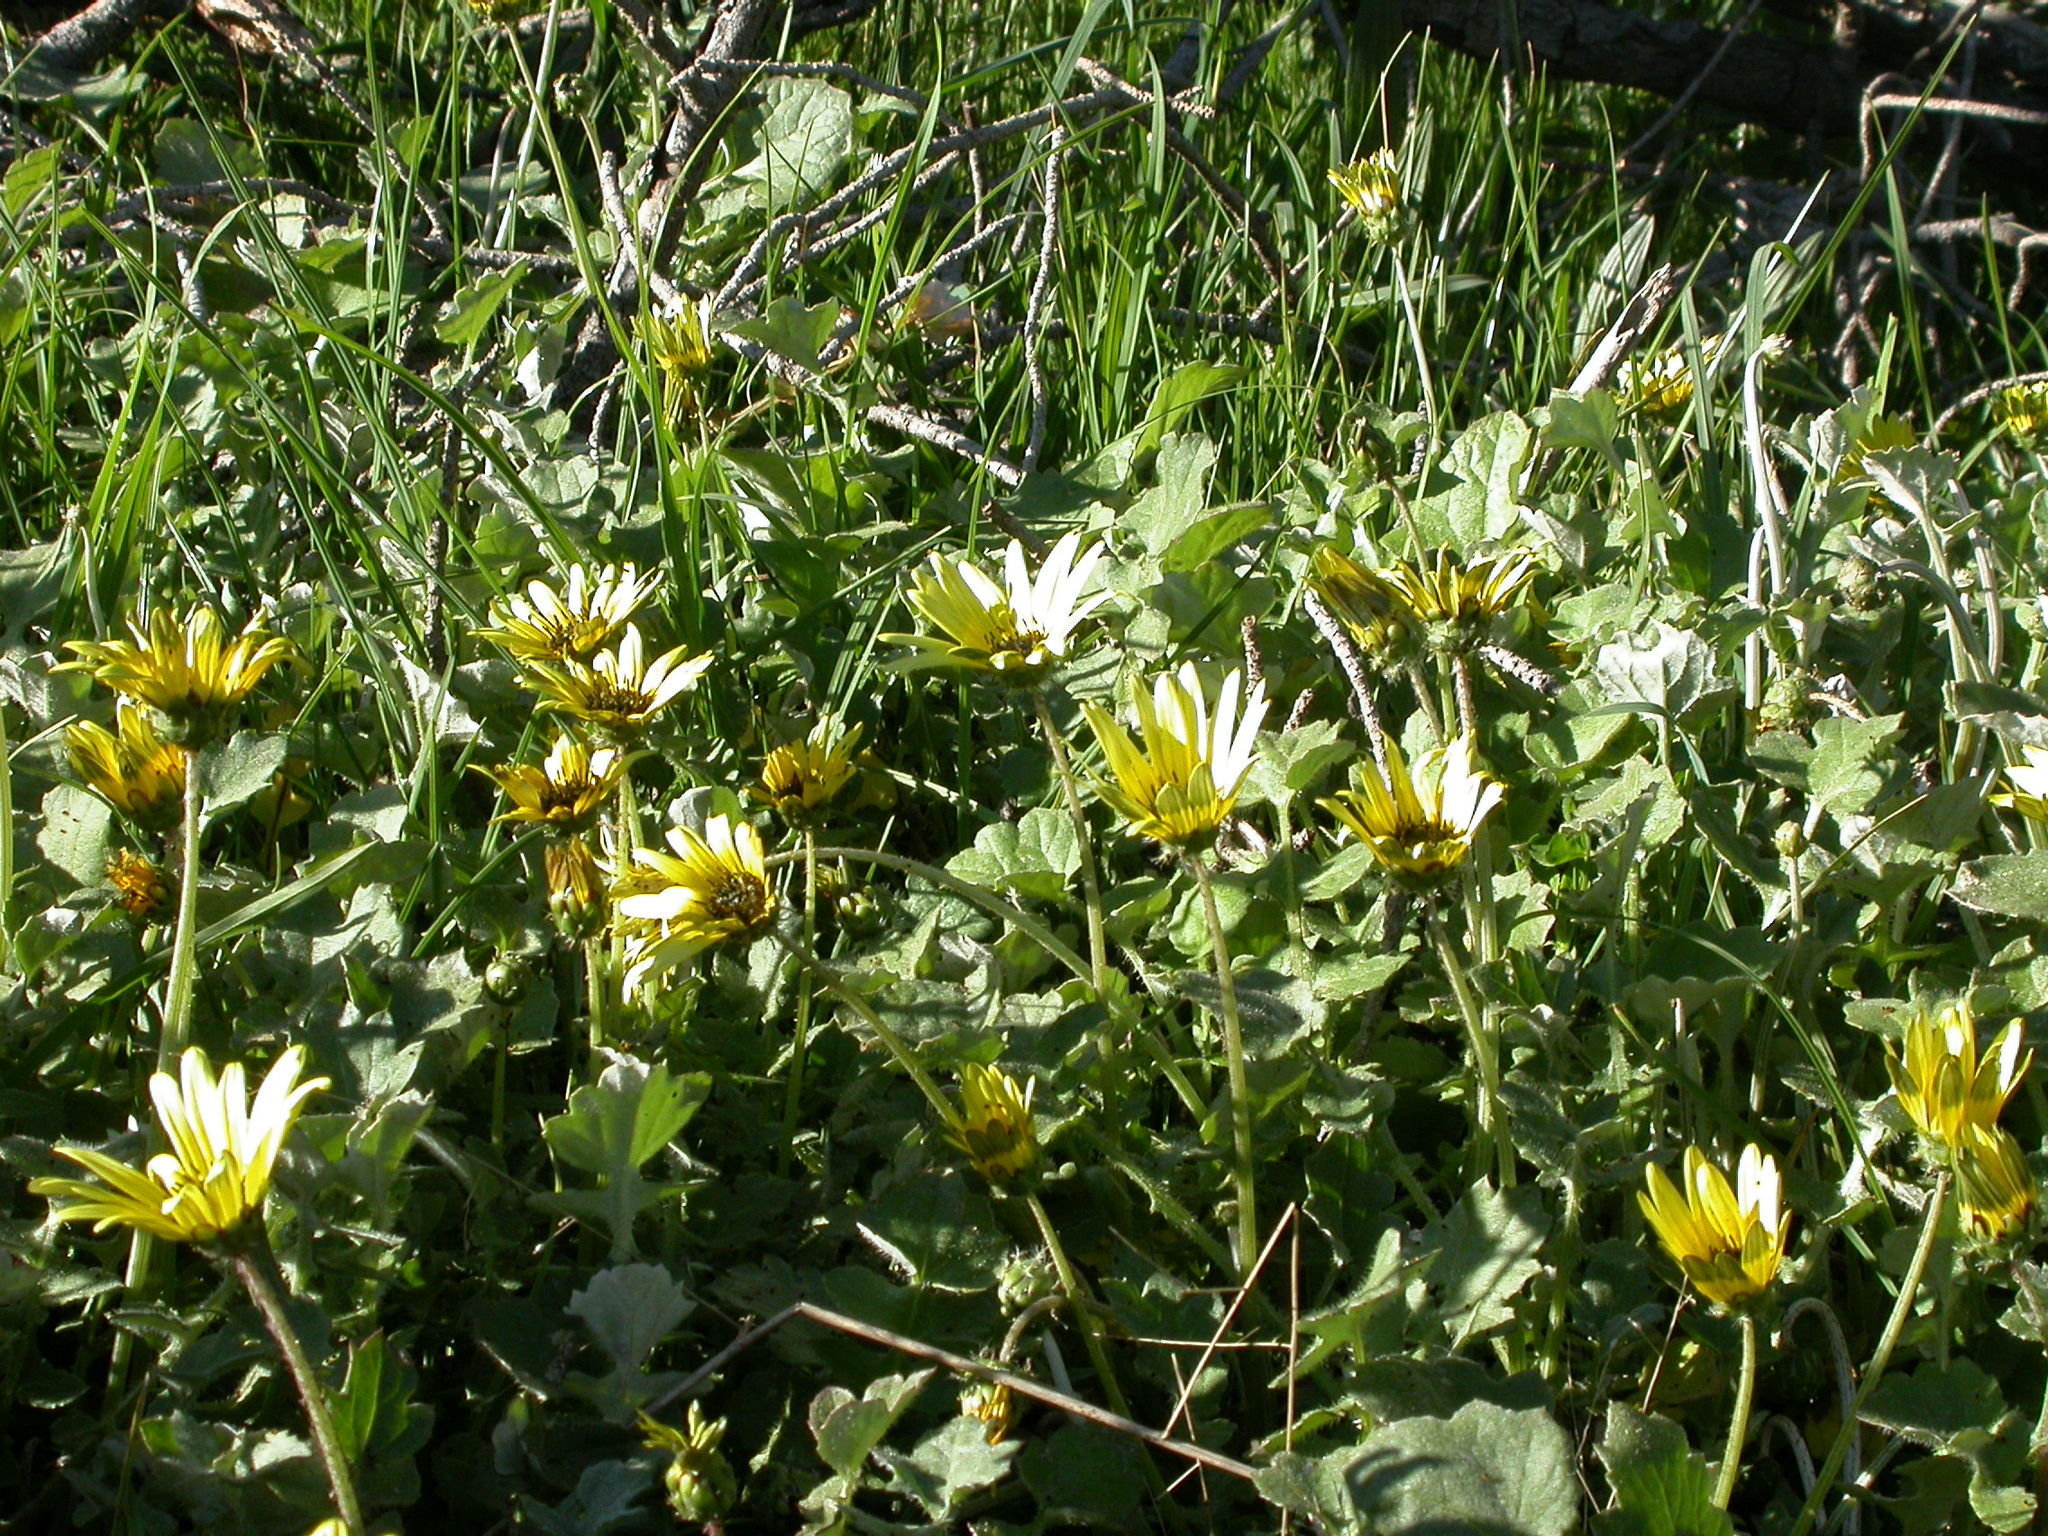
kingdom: Plantae
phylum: Tracheophyta
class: Magnoliopsida
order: Asterales
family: Asteraceae
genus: Arctotheca
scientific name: Arctotheca calendula
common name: Capeweed
